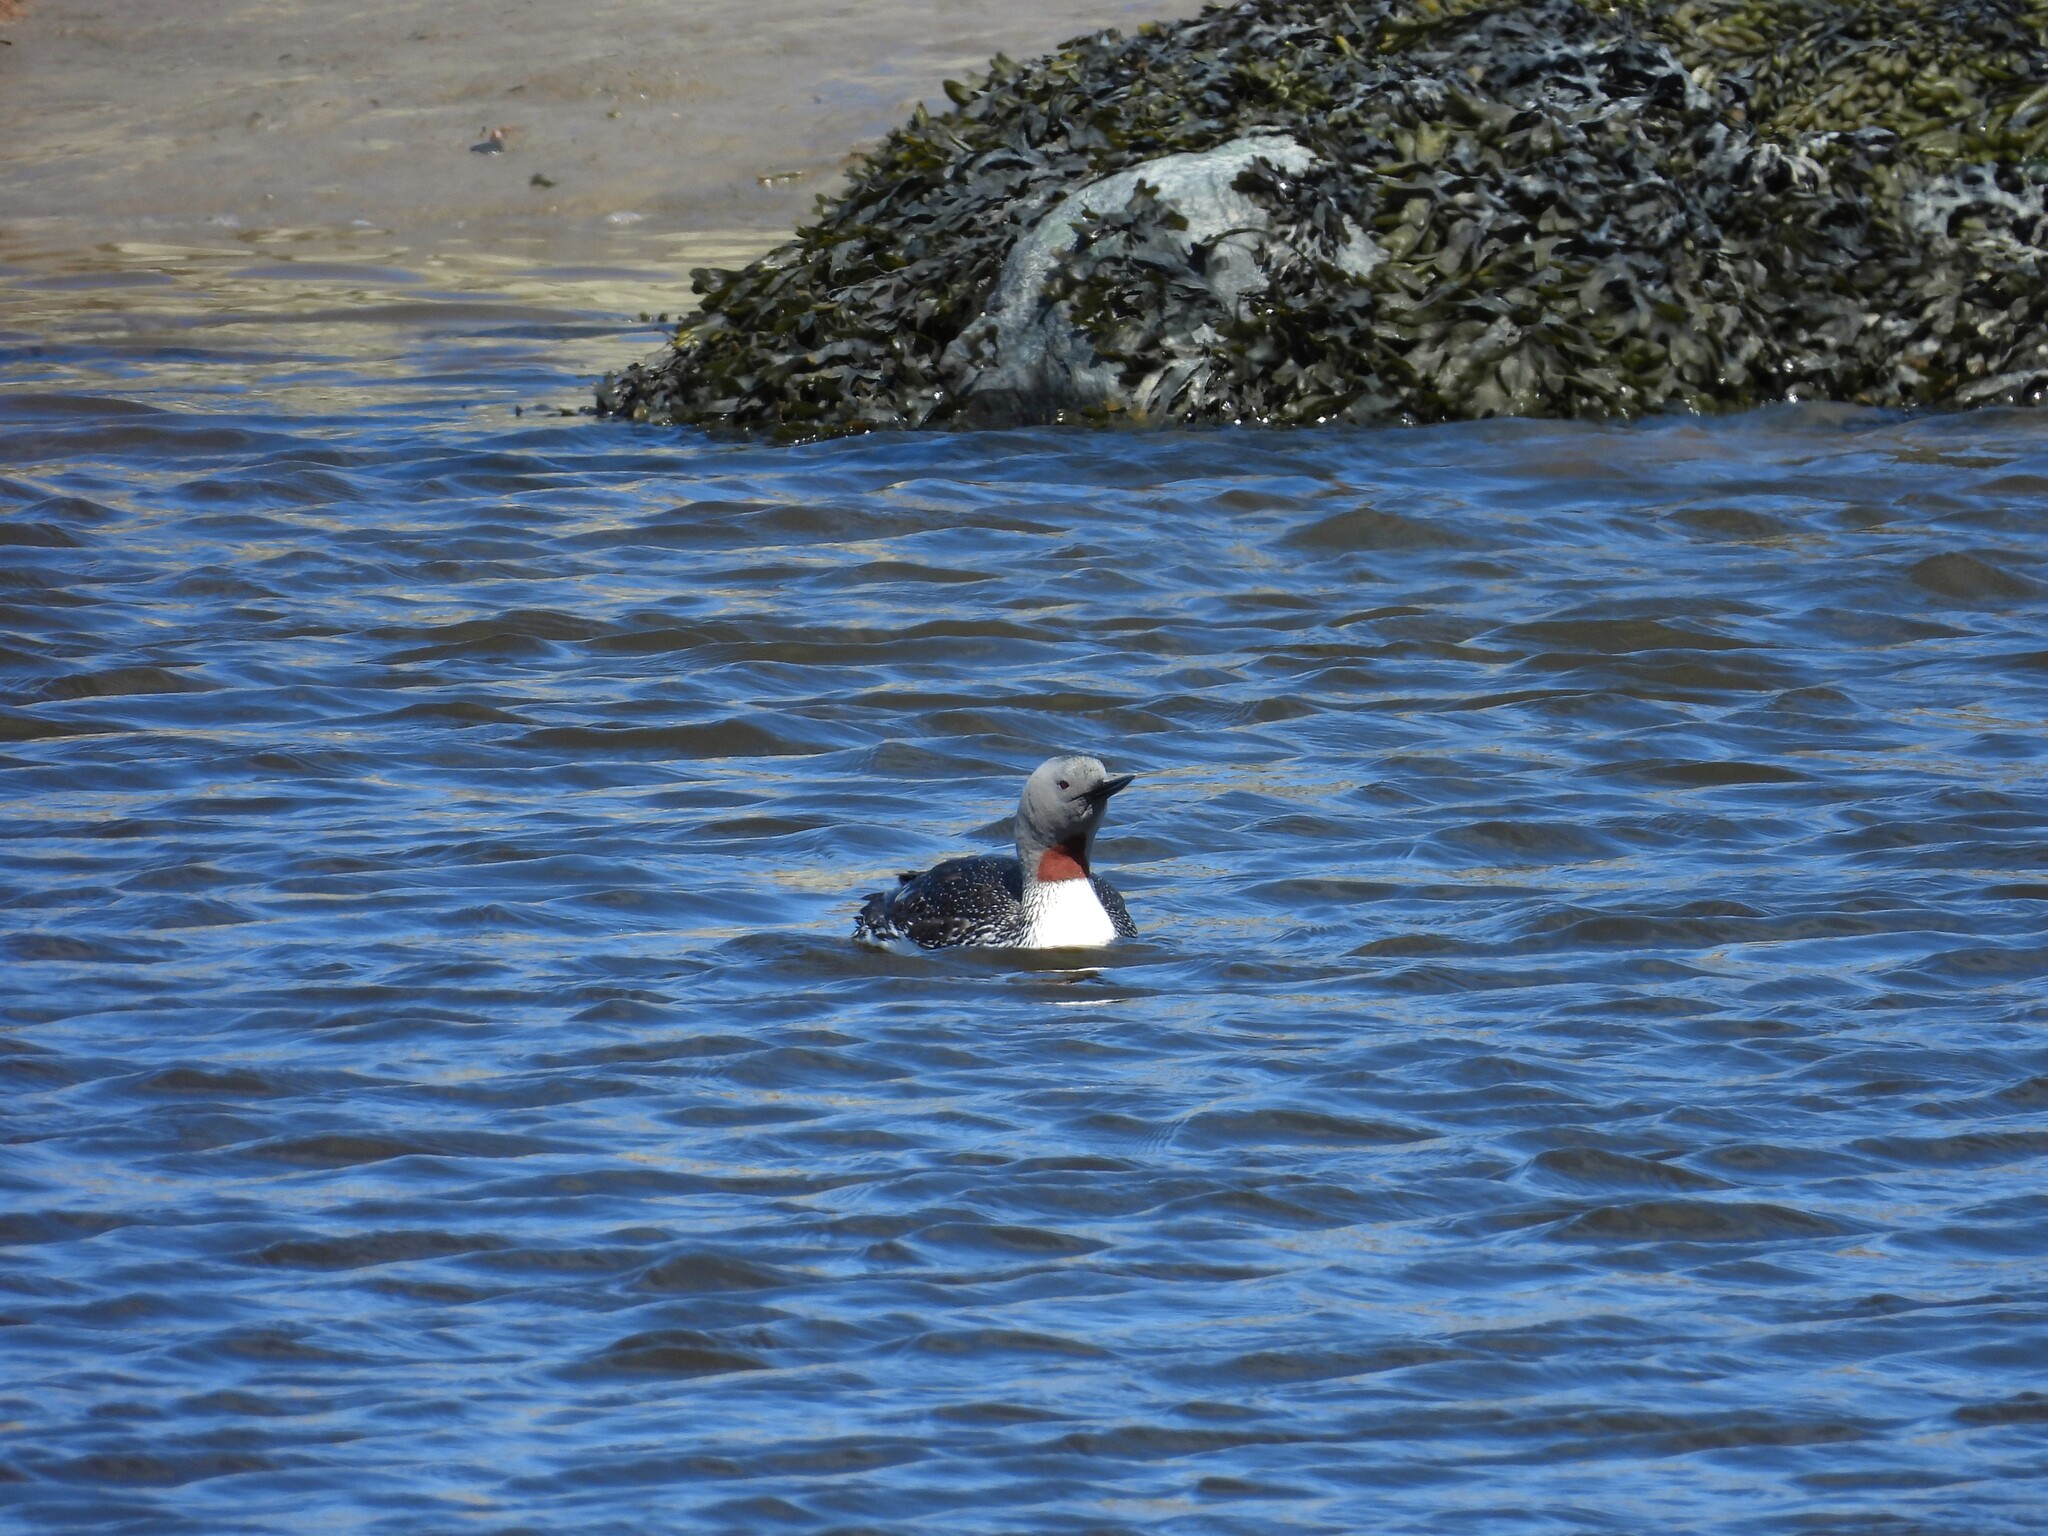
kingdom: Animalia
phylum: Chordata
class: Aves
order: Gaviiformes
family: Gaviidae
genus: Gavia
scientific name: Gavia stellata
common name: Red-throated loon
